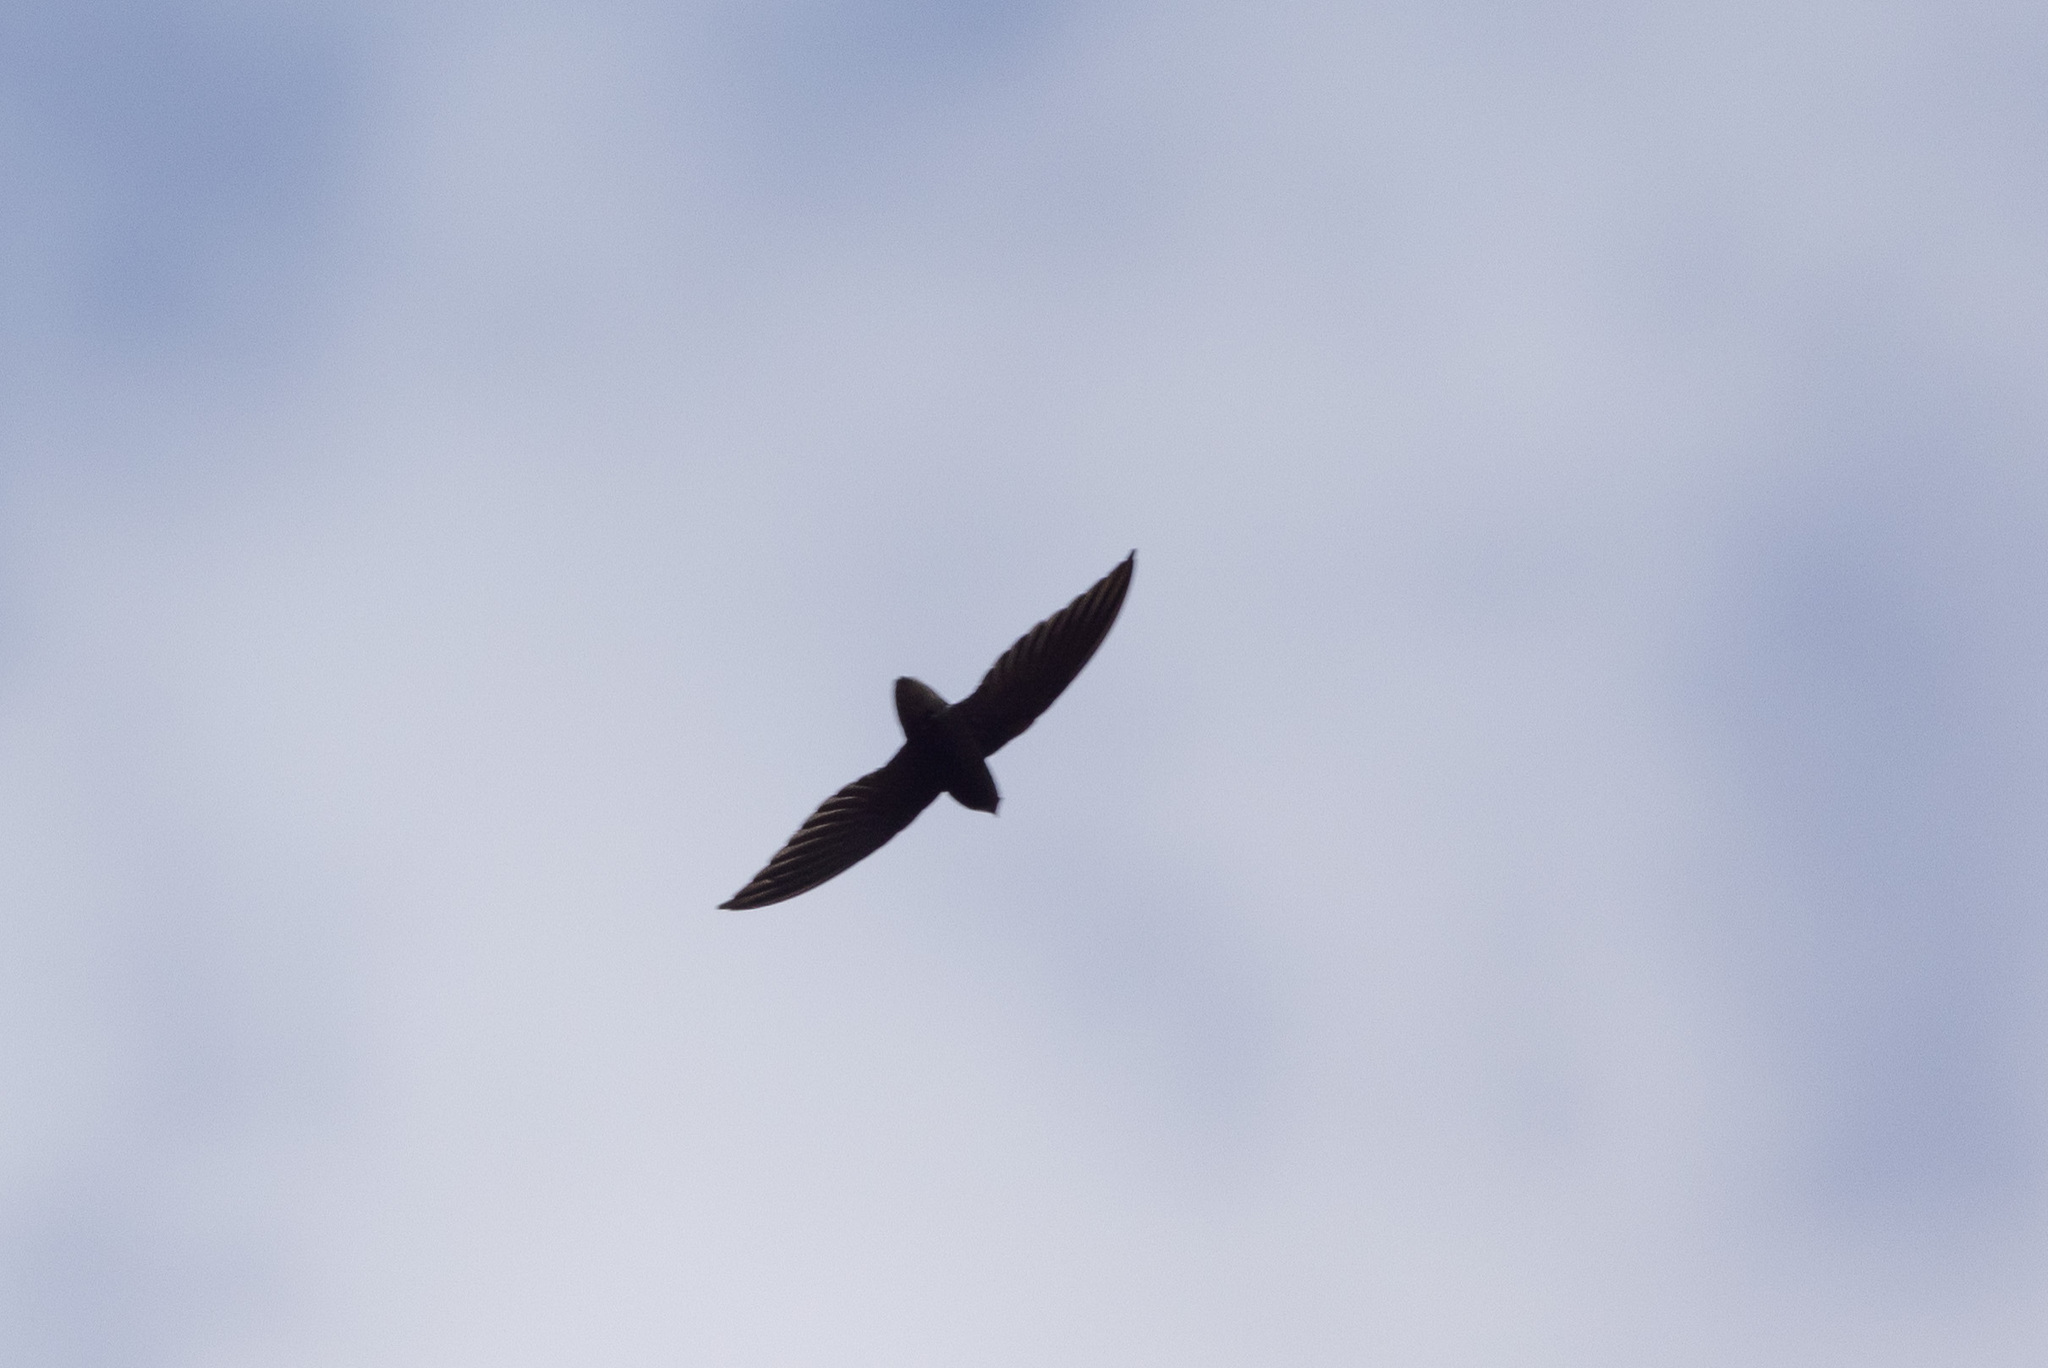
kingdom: Animalia
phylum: Chordata
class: Aves
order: Apodiformes
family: Apodidae
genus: Chaetura
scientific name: Chaetura brachyura
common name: Short-tailed swift
